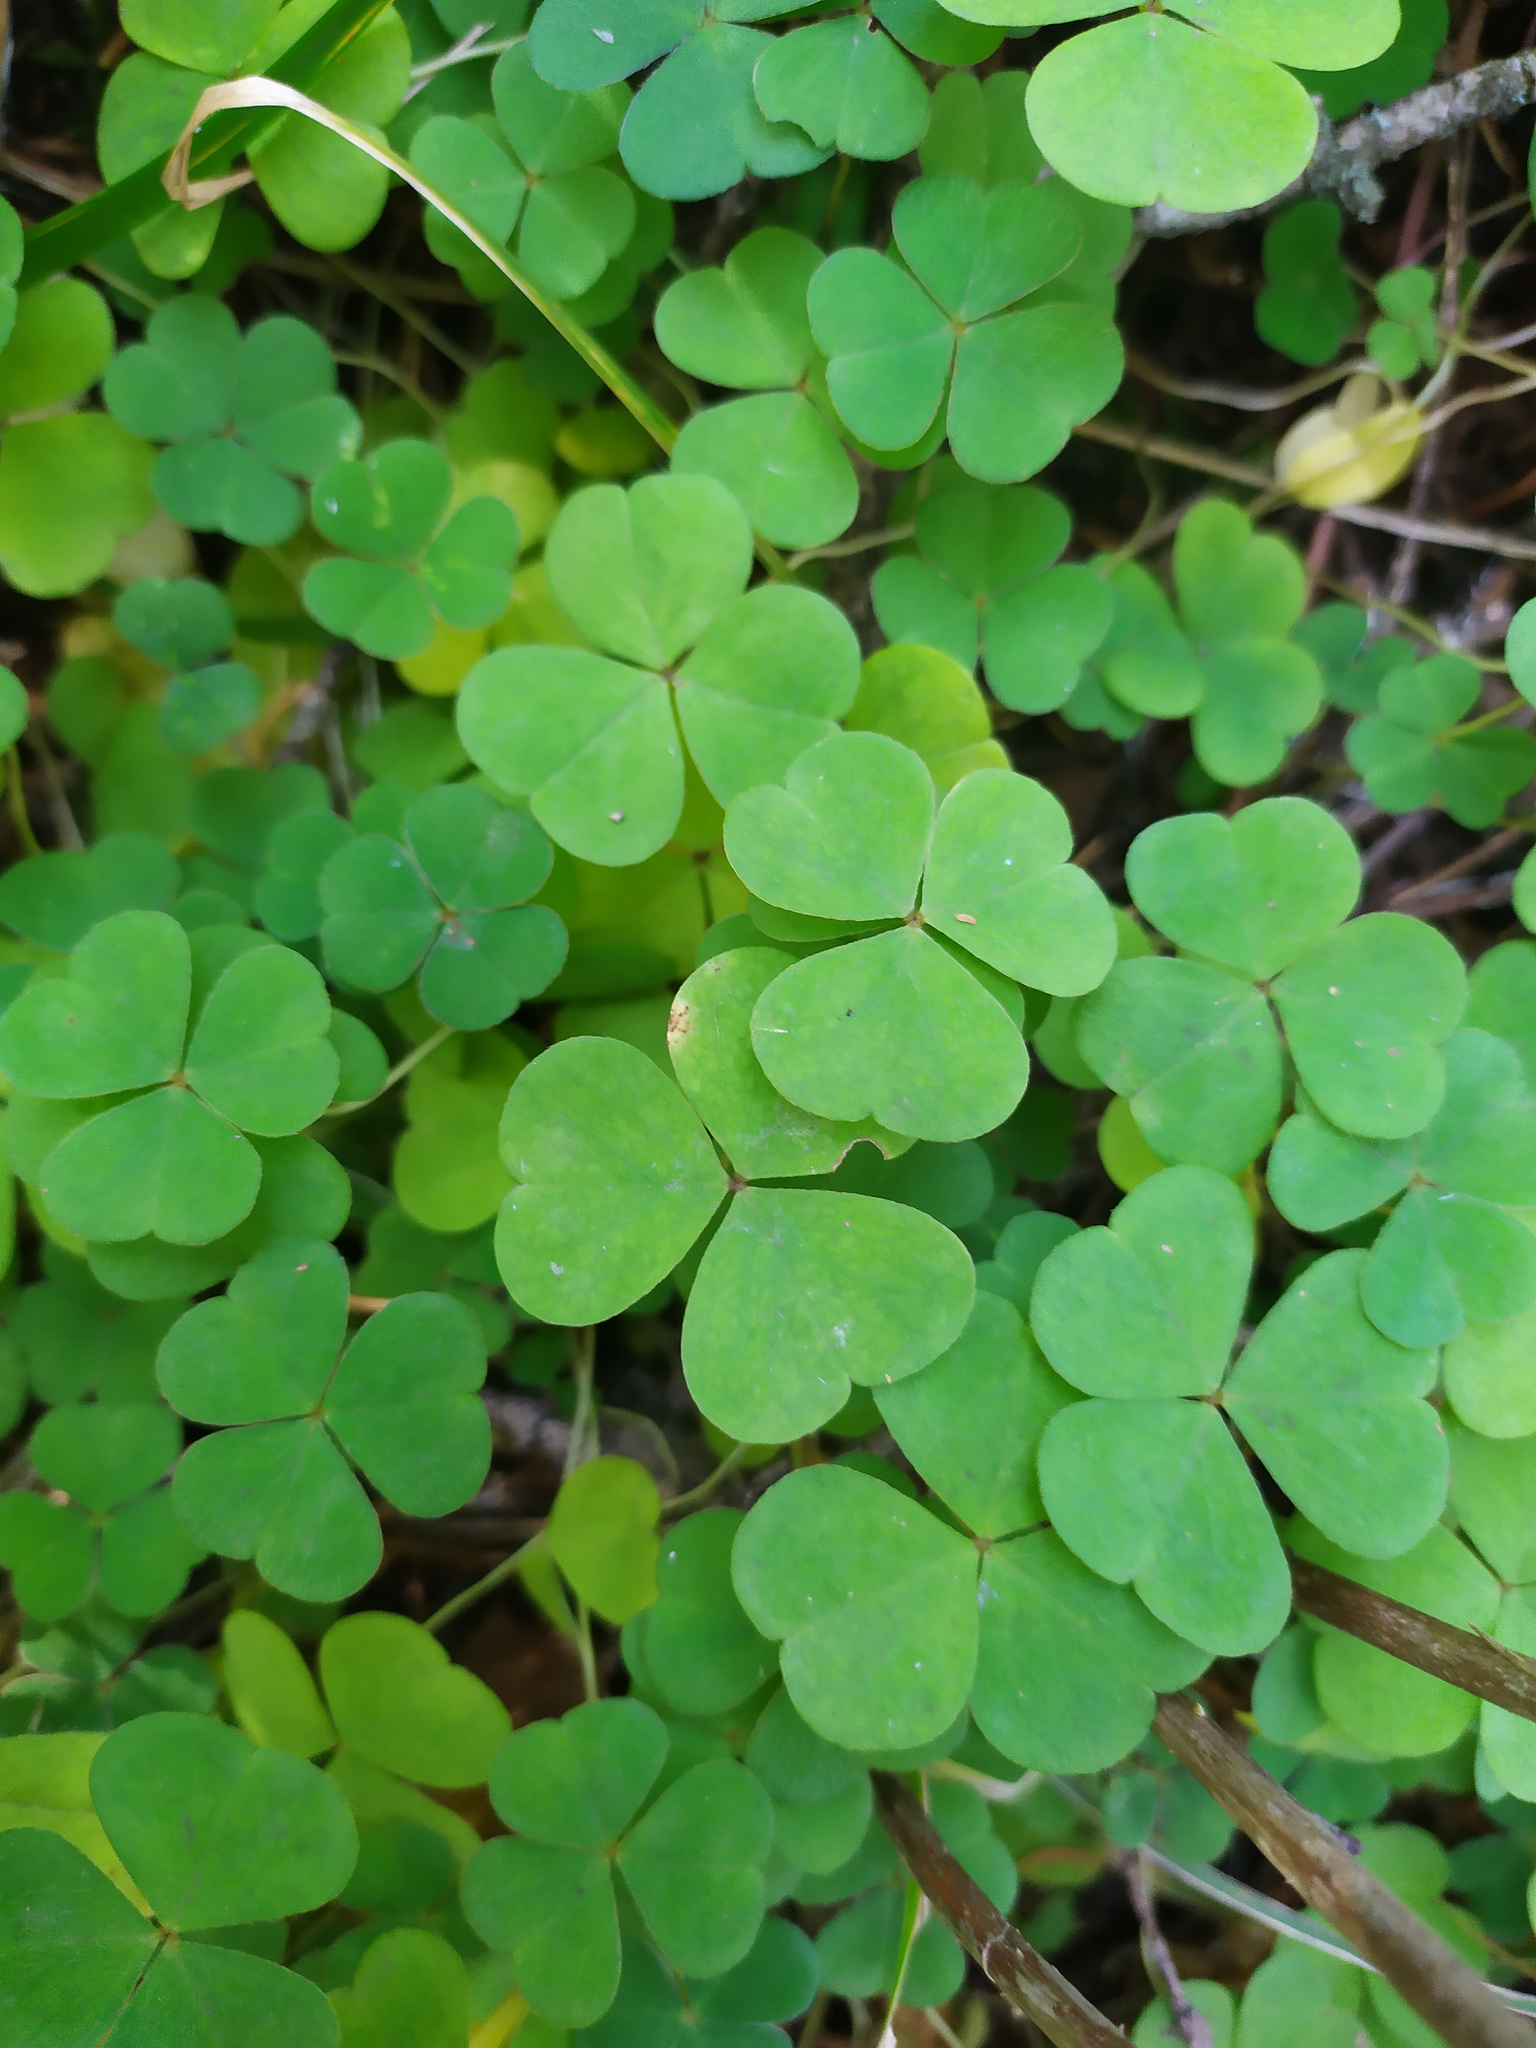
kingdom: Plantae
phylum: Tracheophyta
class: Magnoliopsida
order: Oxalidales
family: Oxalidaceae
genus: Oxalis
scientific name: Oxalis acetosella
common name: Wood-sorrel
